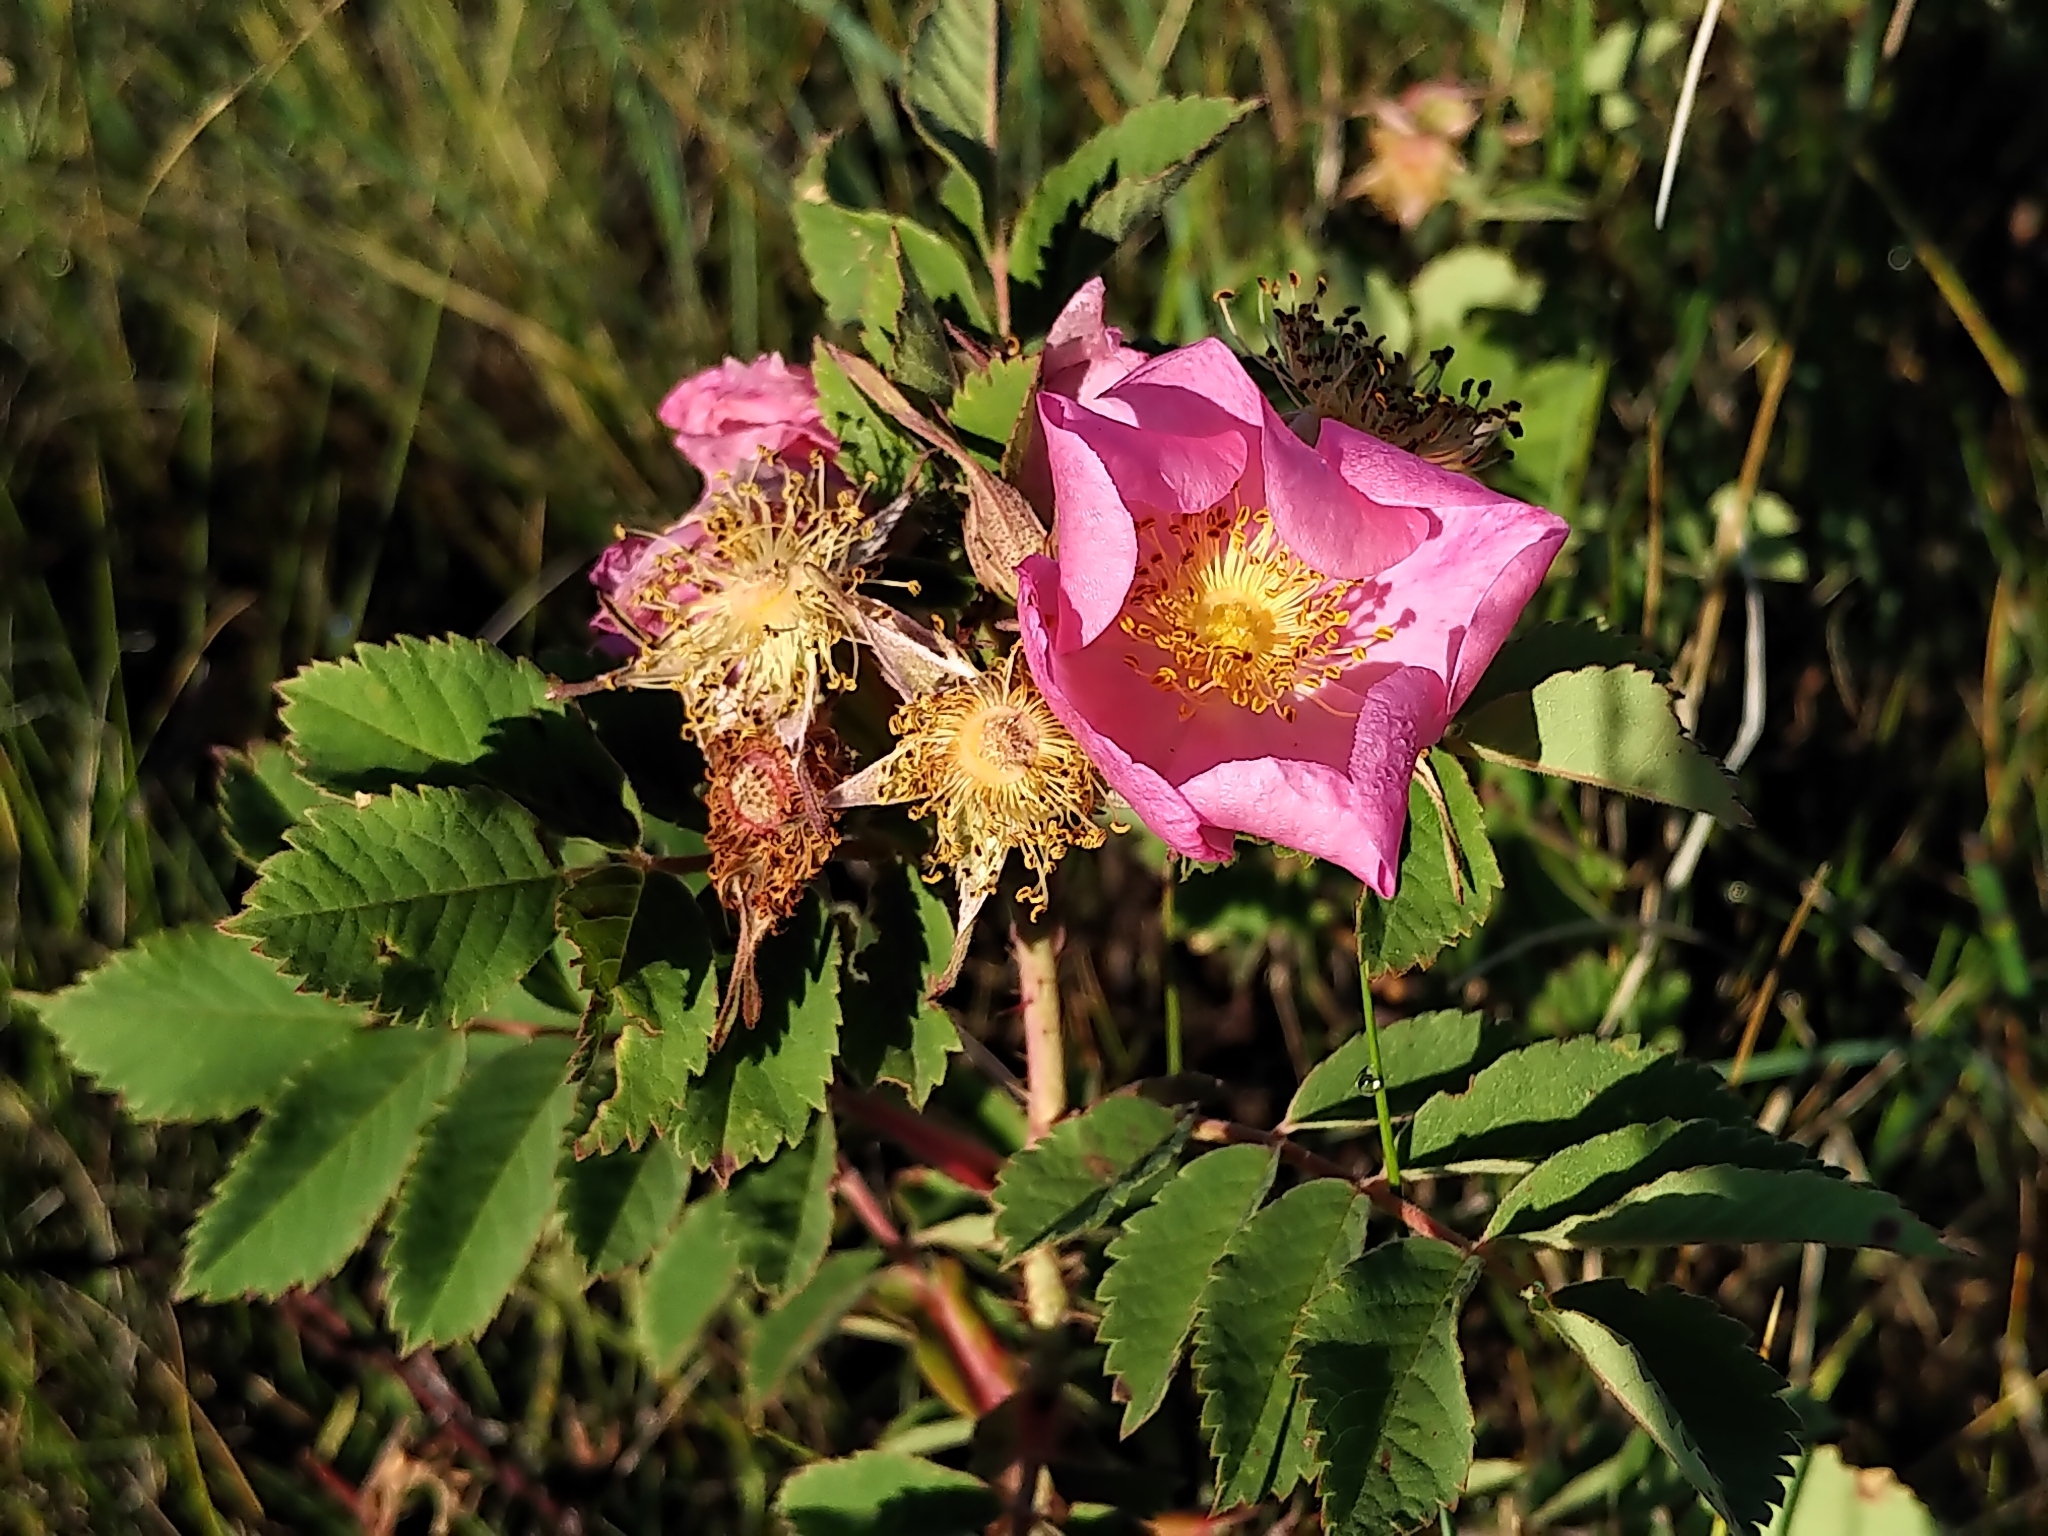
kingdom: Plantae
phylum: Tracheophyta
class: Magnoliopsida
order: Rosales
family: Rosaceae
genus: Rosa
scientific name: Rosa arkansana
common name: Prairie rose
